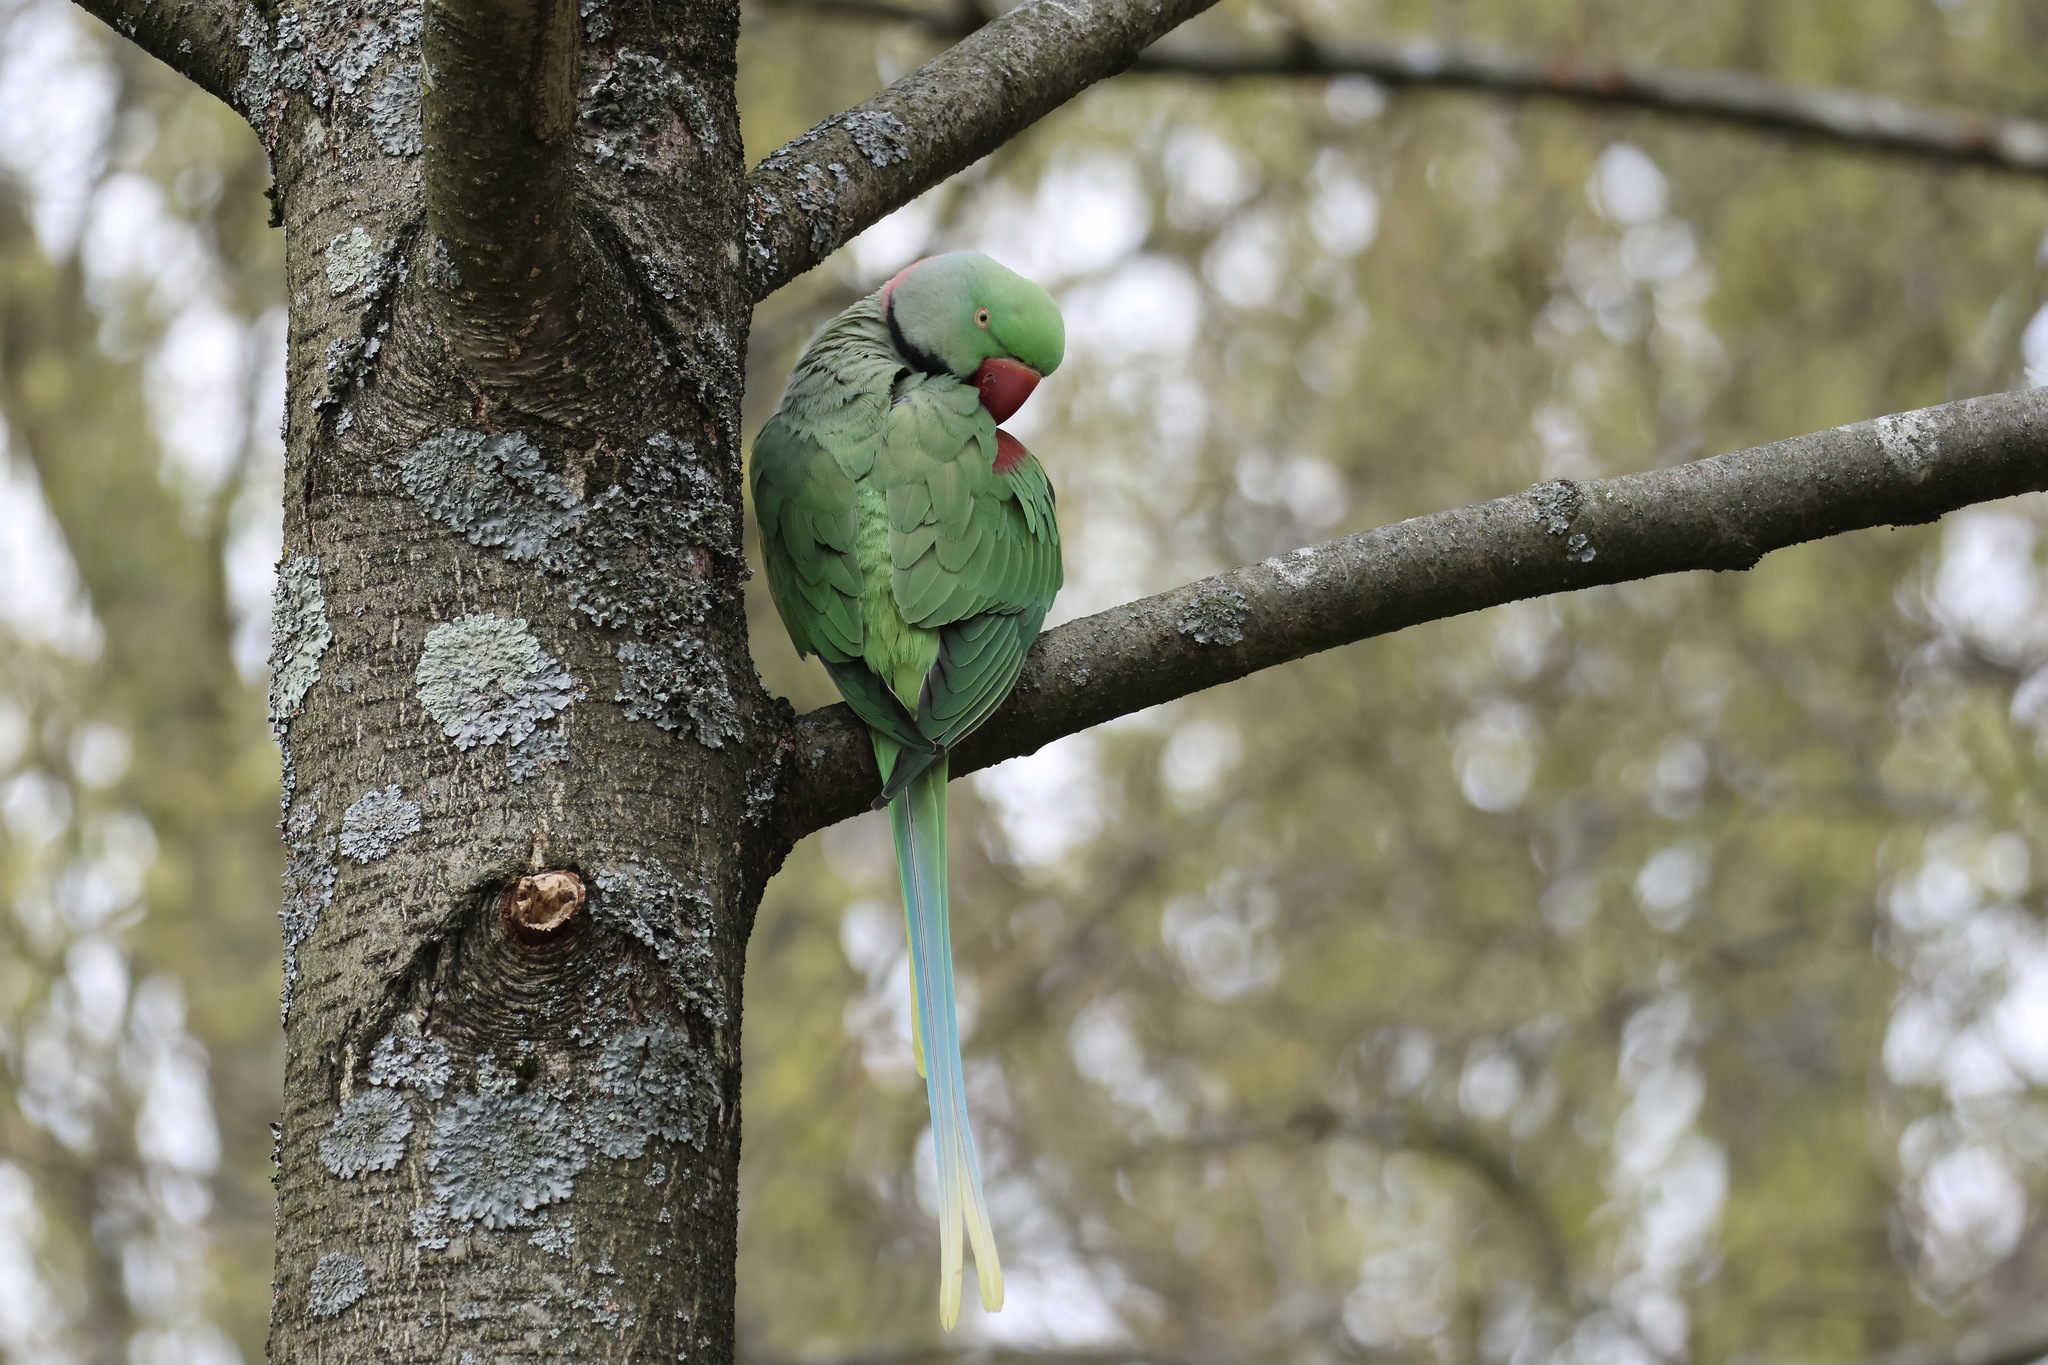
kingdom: Animalia
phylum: Chordata
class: Aves
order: Psittaciformes
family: Psittacidae
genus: Psittacula
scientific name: Psittacula eupatria
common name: Alexandrine parakeet
